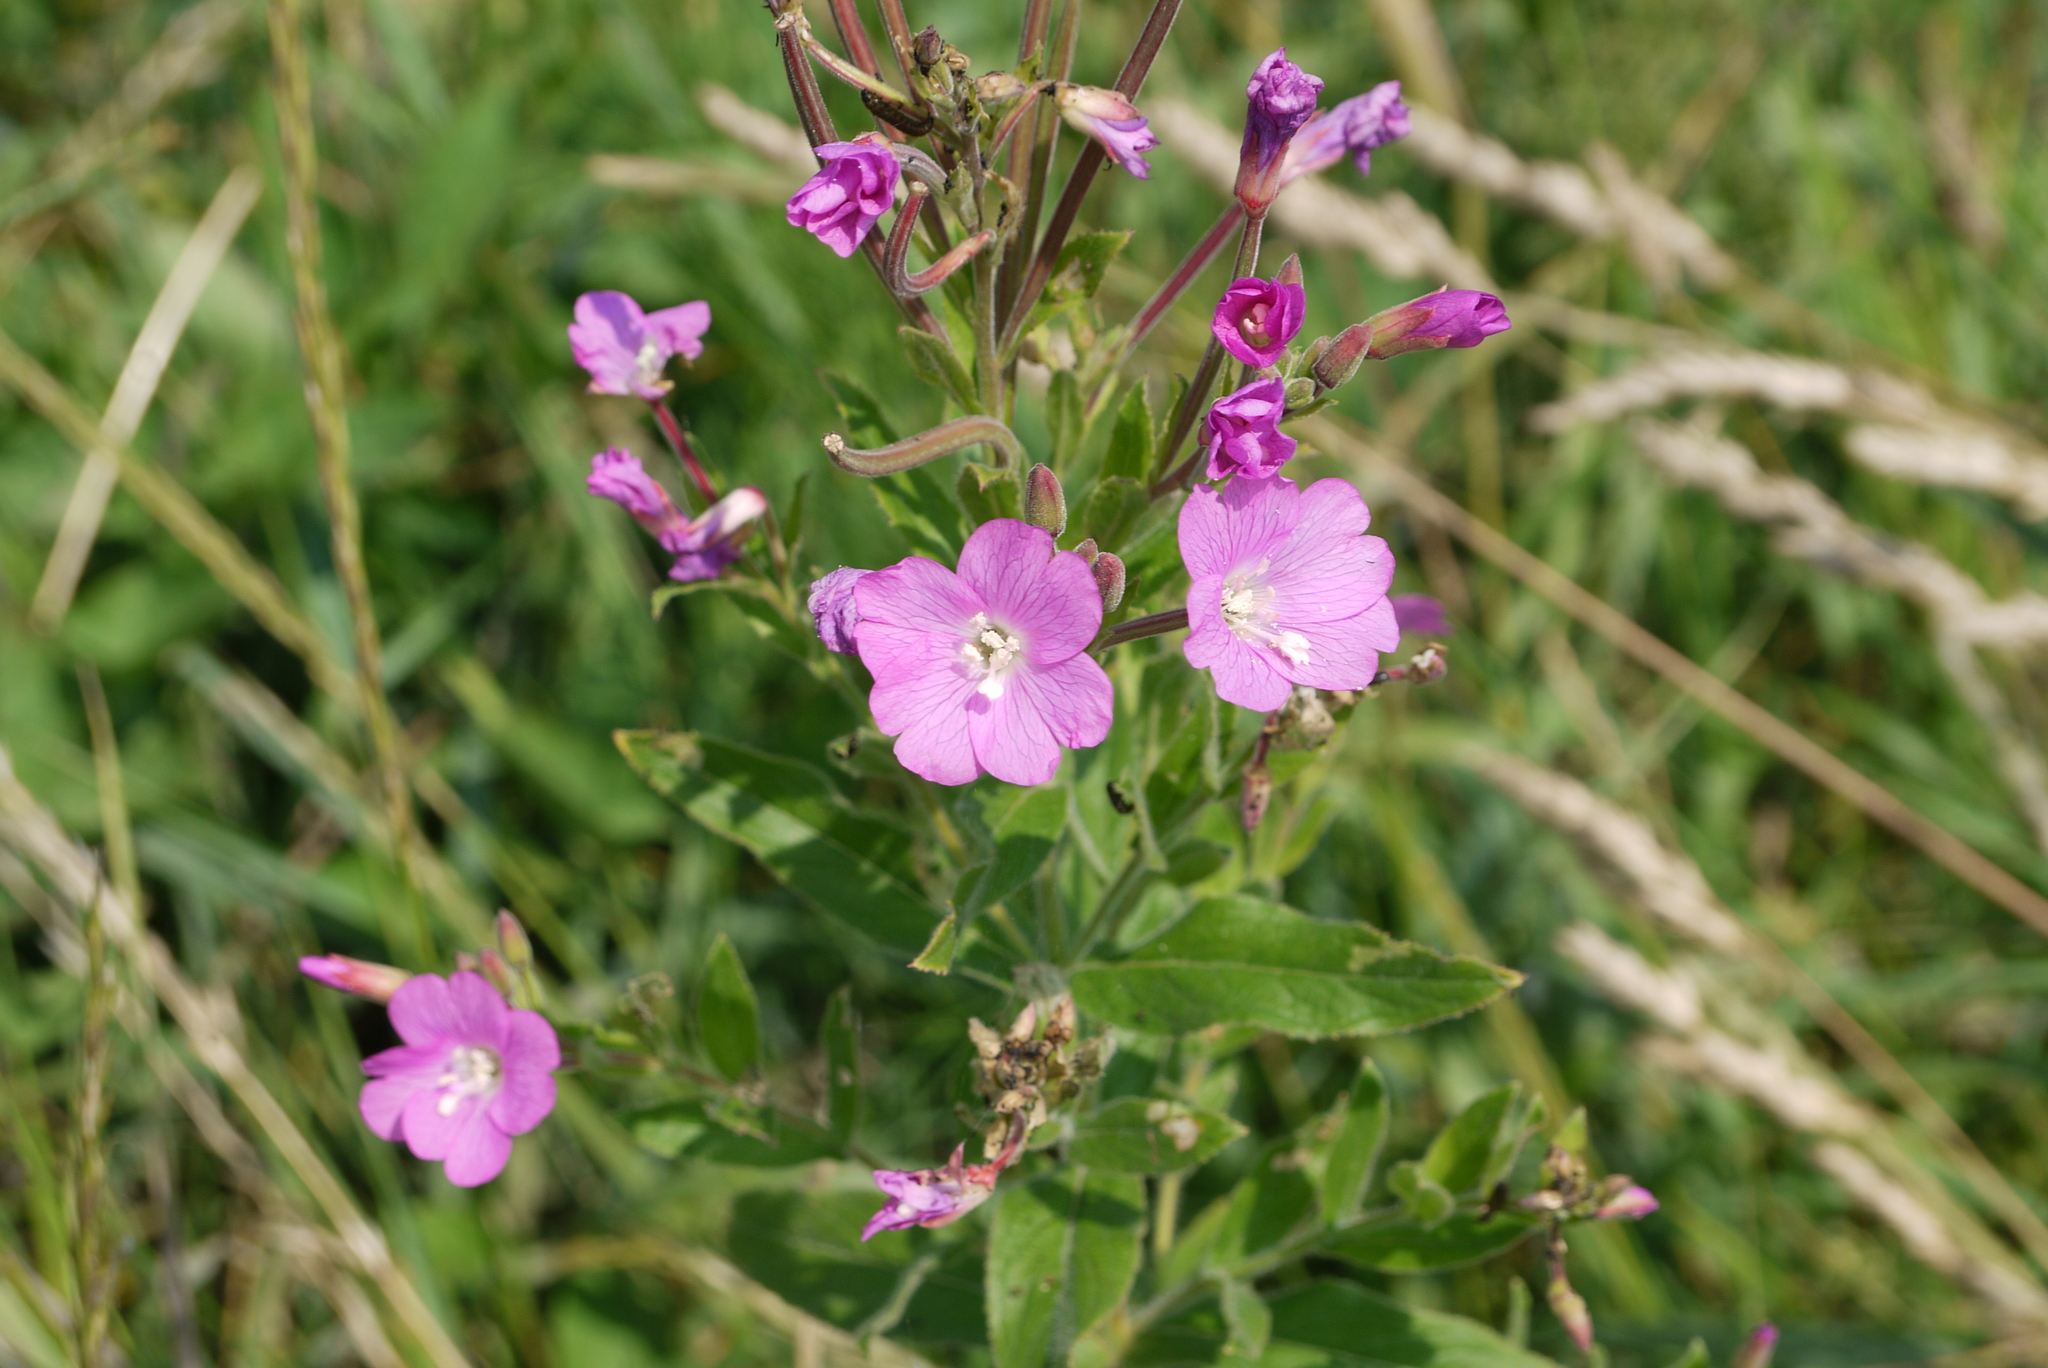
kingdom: Plantae
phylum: Tracheophyta
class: Magnoliopsida
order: Myrtales
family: Onagraceae
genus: Epilobium
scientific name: Epilobium hirsutum
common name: Great willowherb
